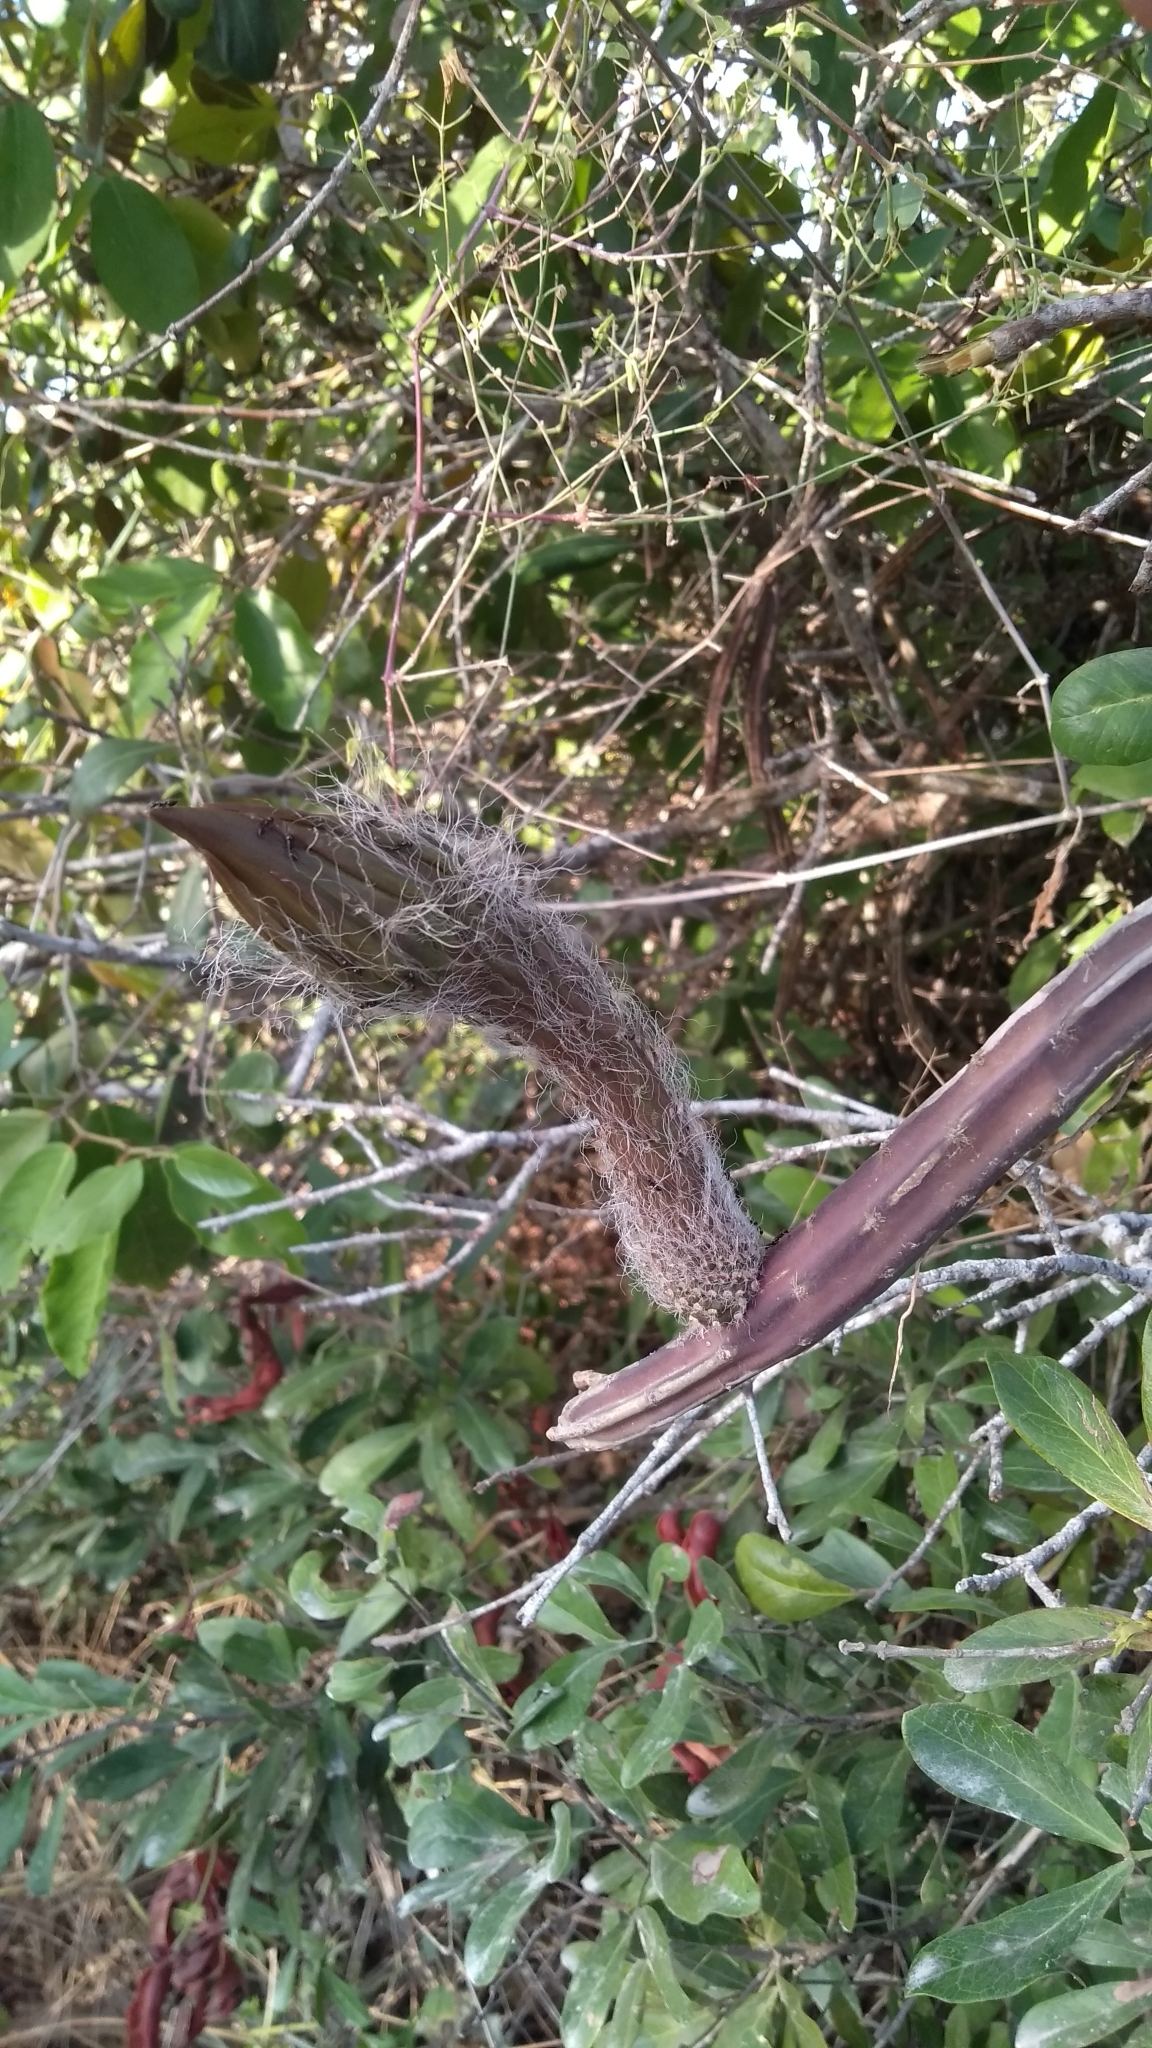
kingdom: Plantae
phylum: Tracheophyta
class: Magnoliopsida
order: Caryophyllales
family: Cactaceae
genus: Selenicereus
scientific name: Selenicereus grandiflorus
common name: Queen of the night
